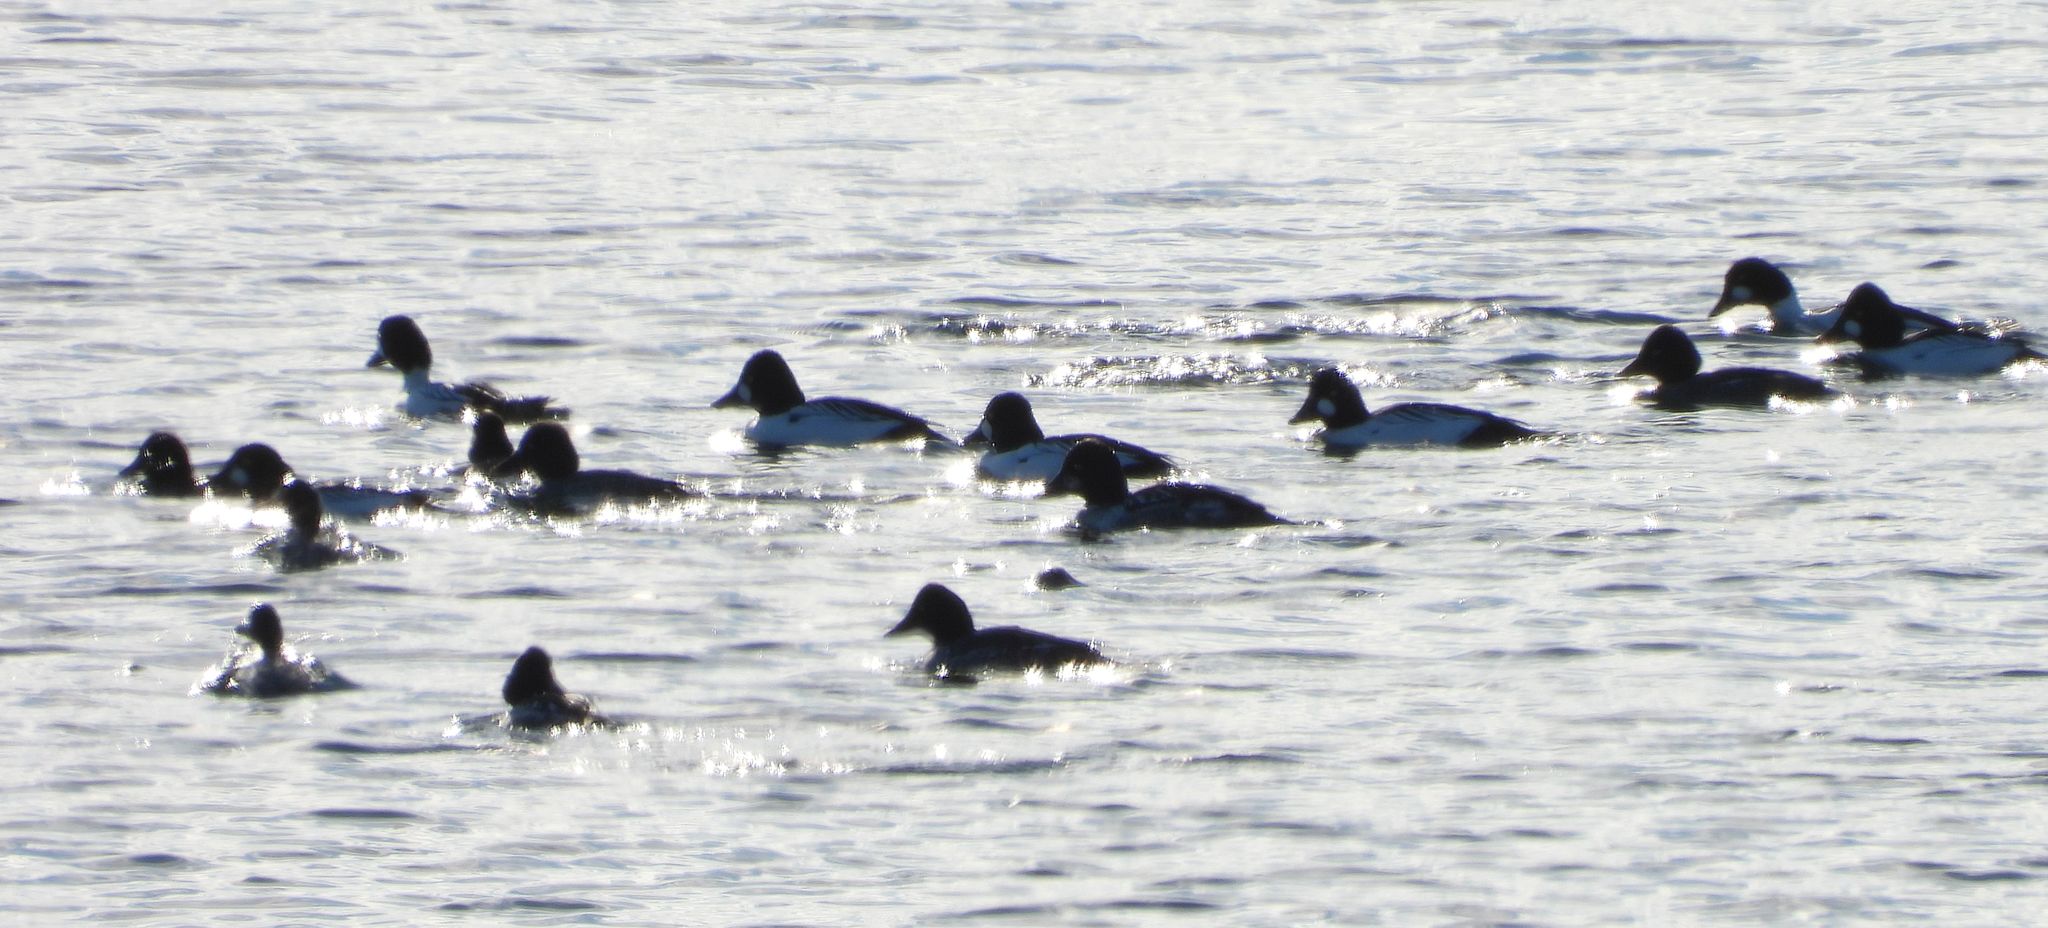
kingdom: Animalia
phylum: Chordata
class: Aves
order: Anseriformes
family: Anatidae
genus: Bucephala
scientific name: Bucephala clangula
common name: Common goldeneye
